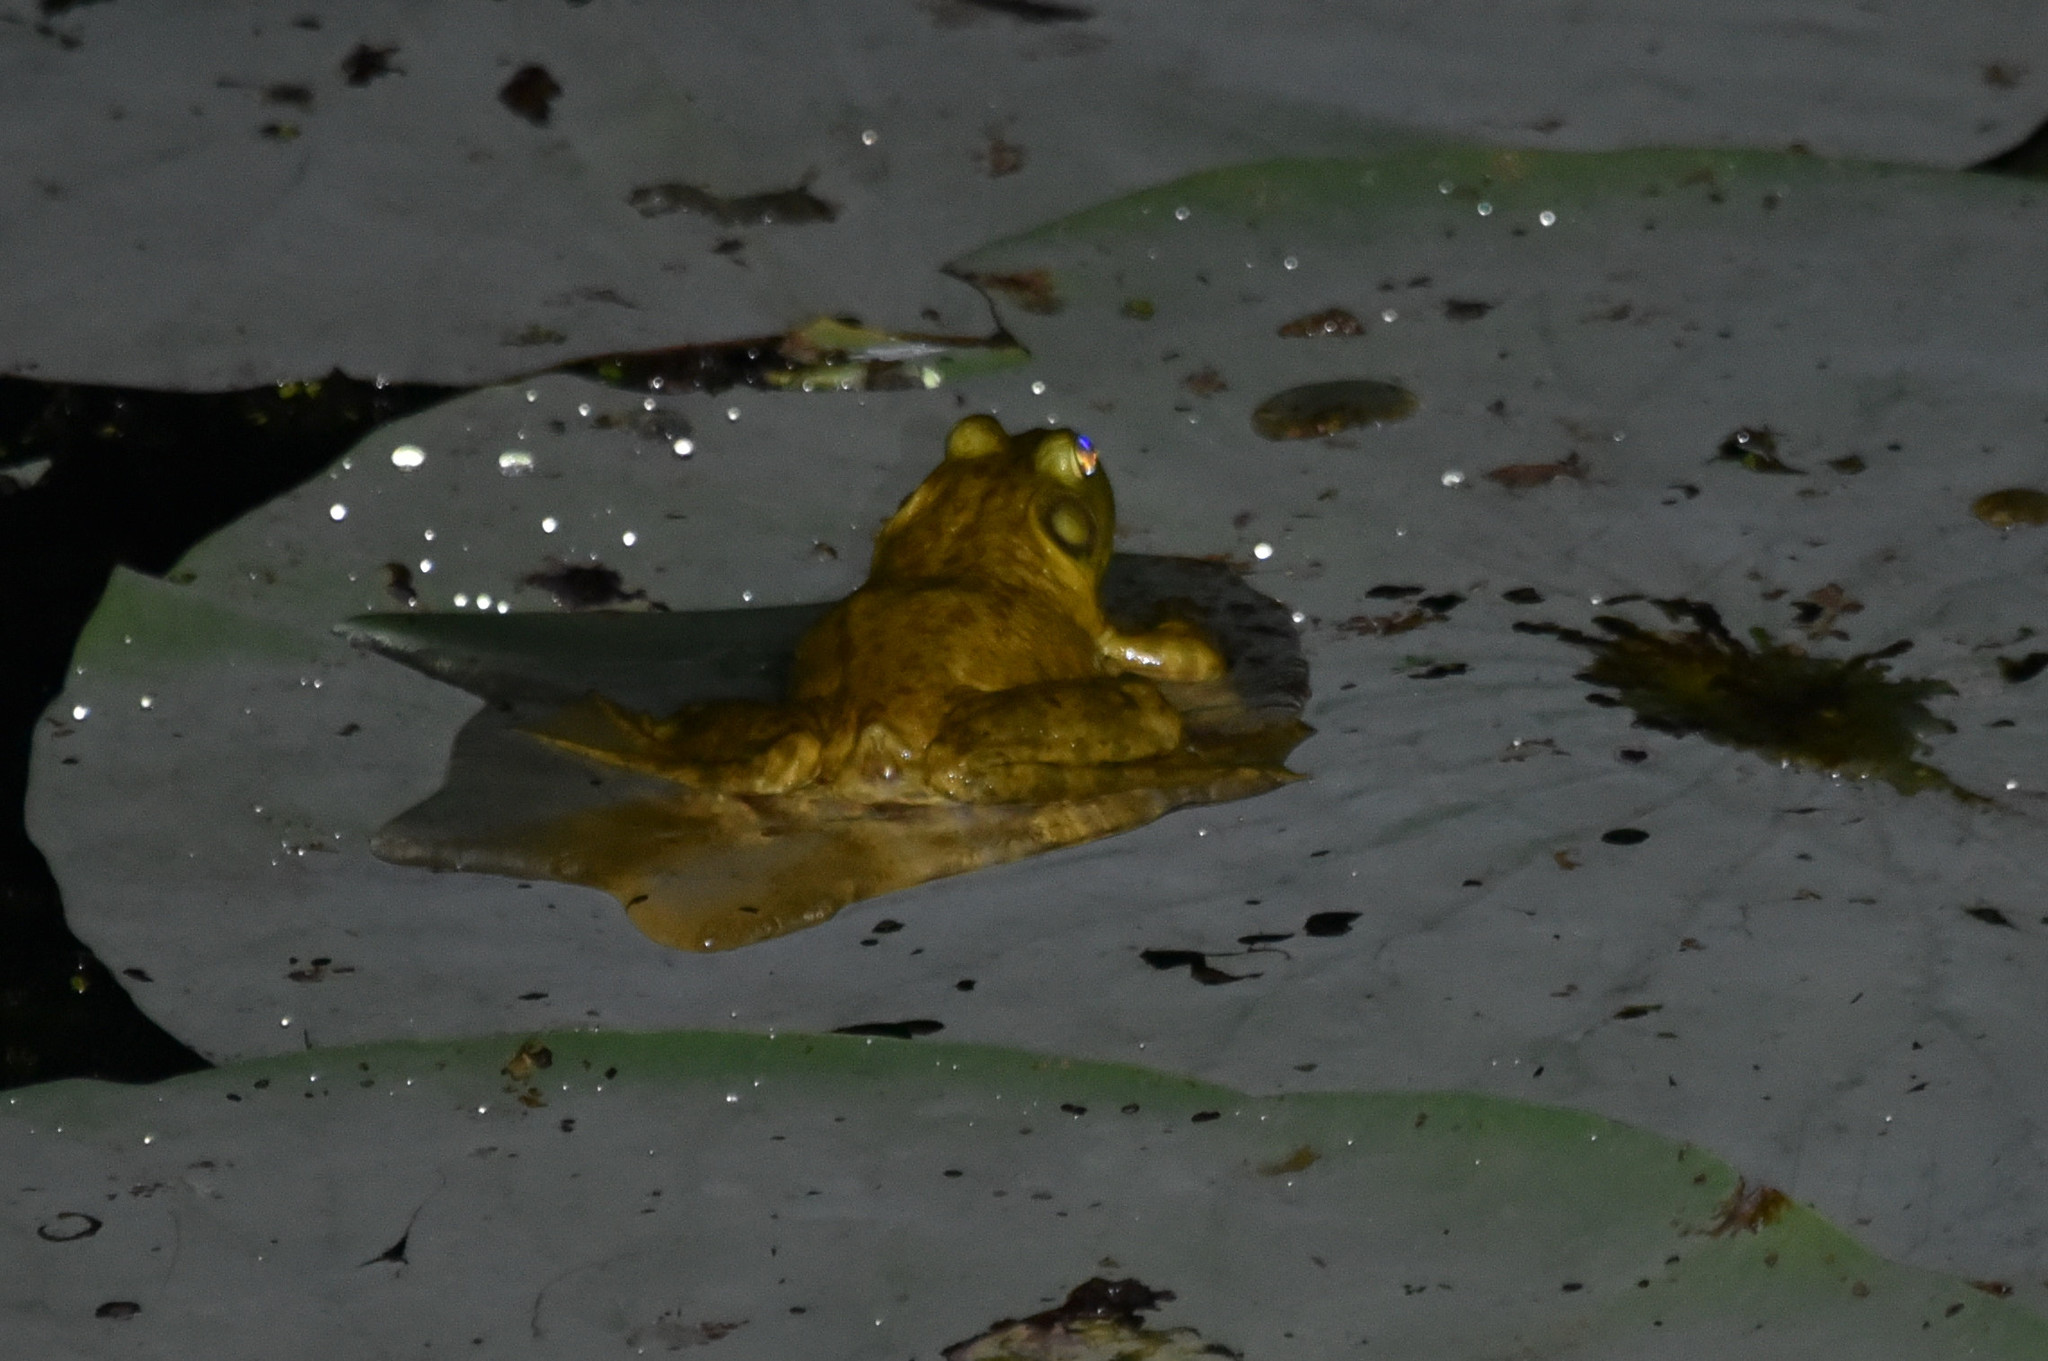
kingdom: Animalia
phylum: Chordata
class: Amphibia
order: Anura
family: Ranidae
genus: Lithobates
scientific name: Lithobates catesbeianus
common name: American bullfrog
